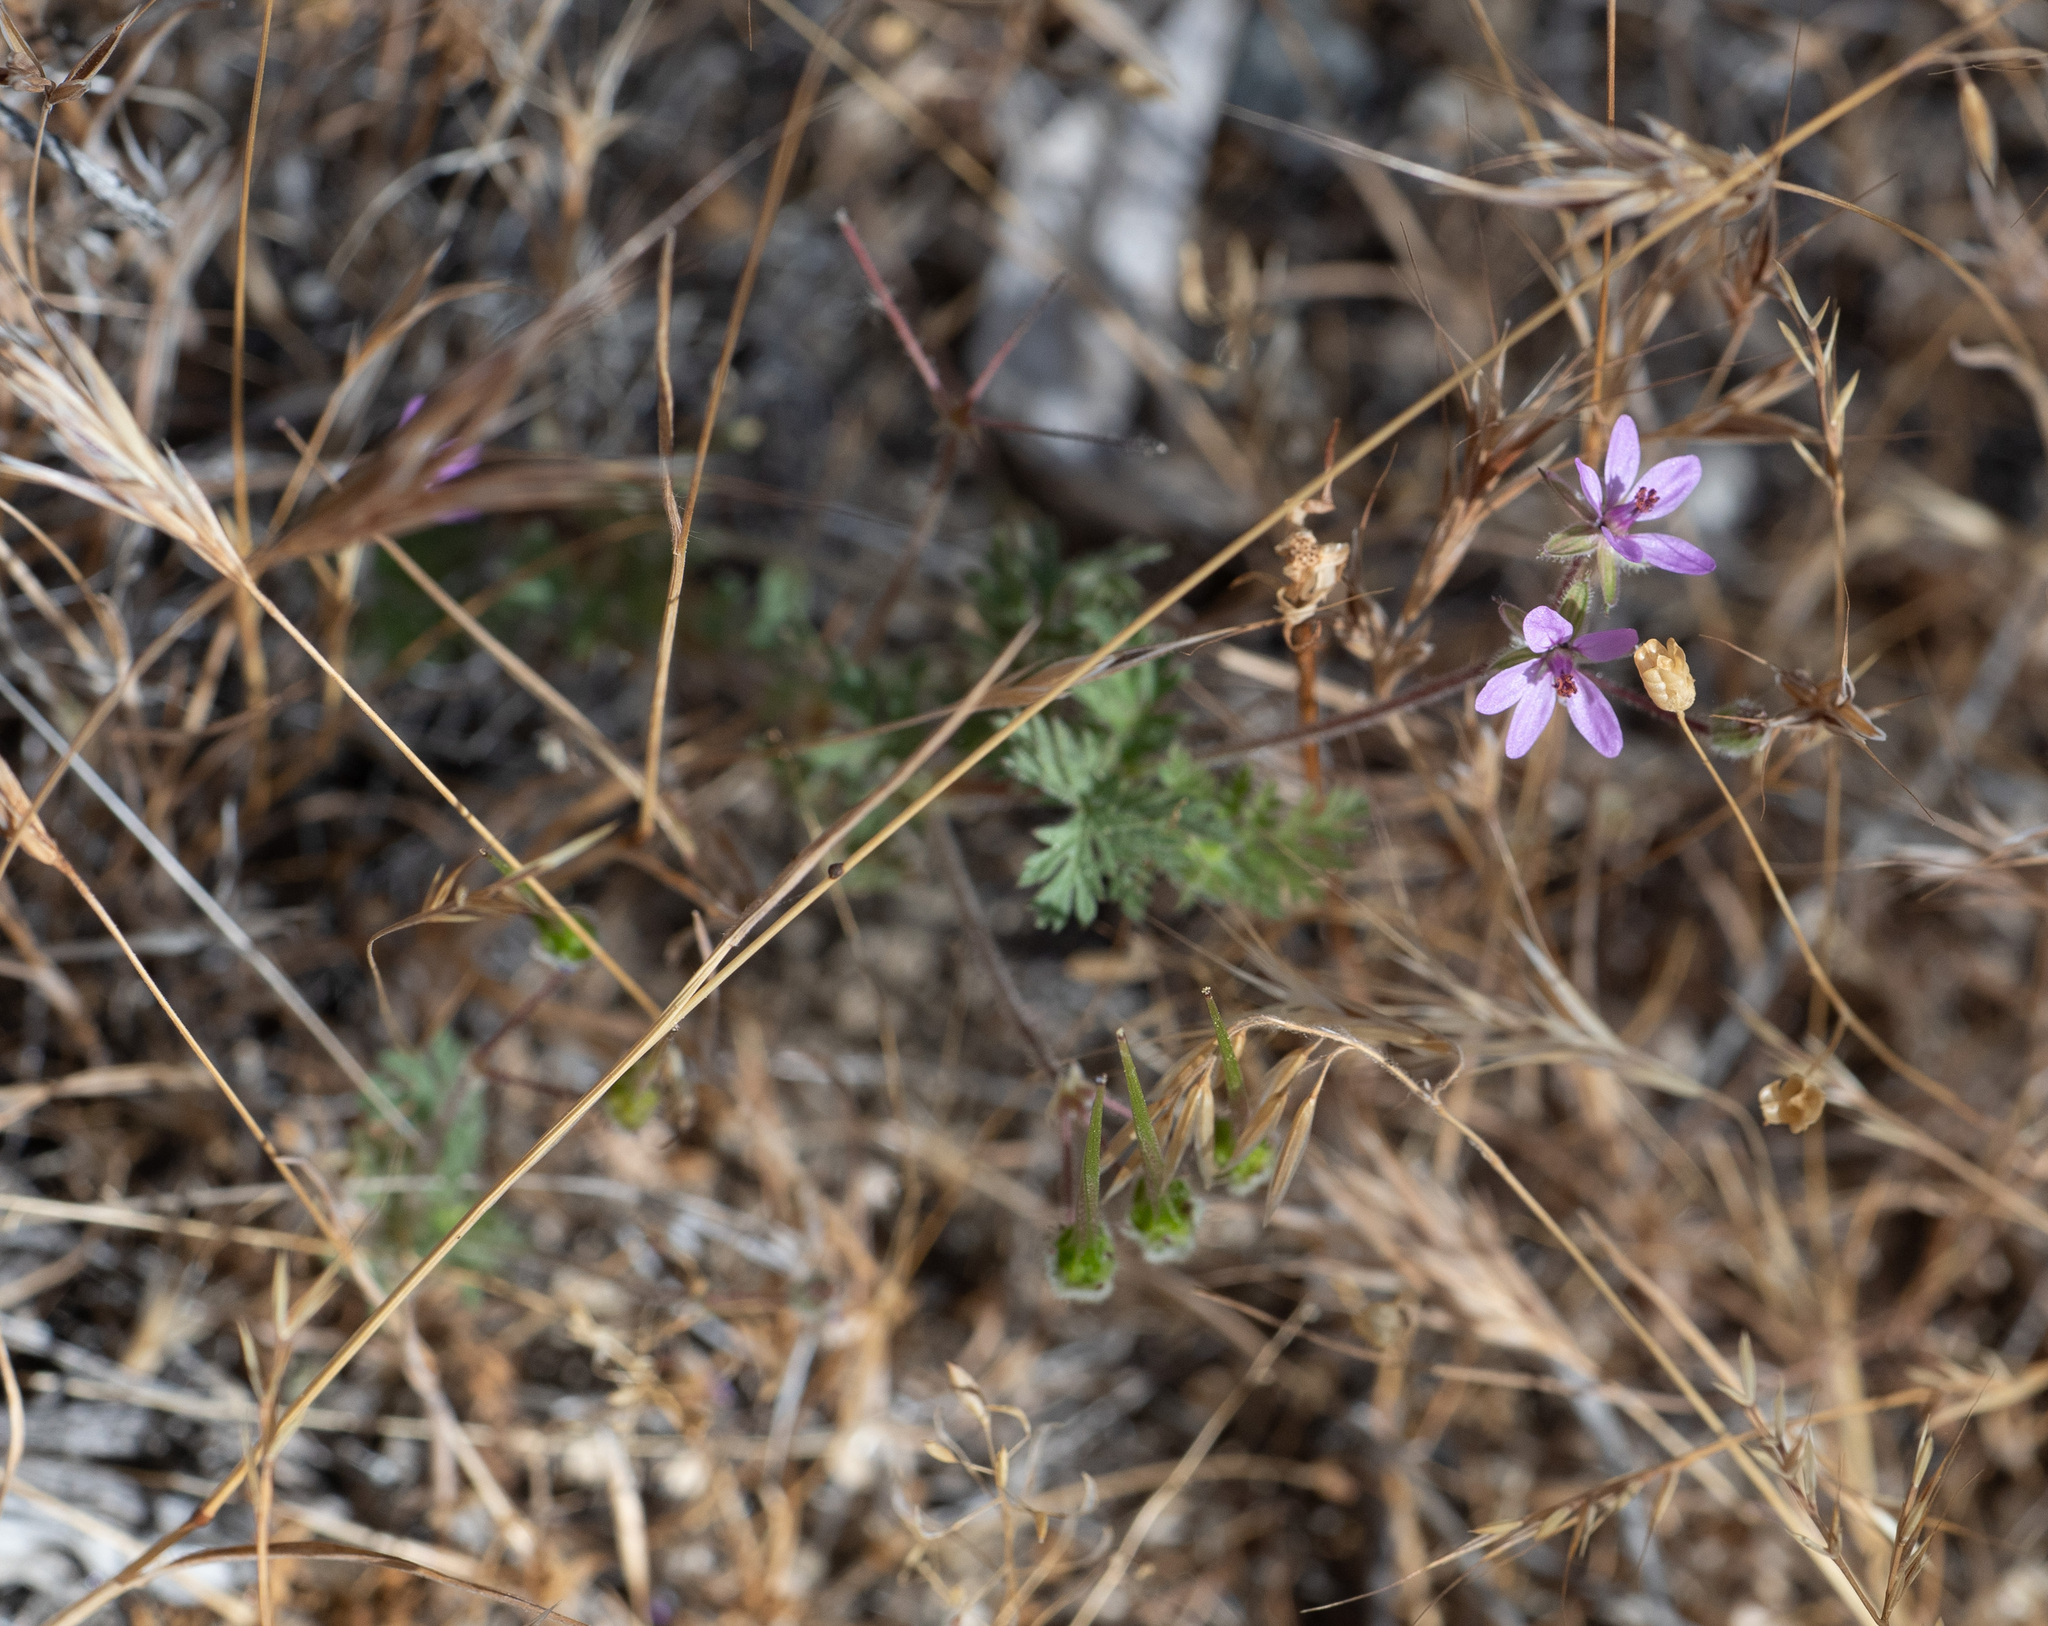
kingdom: Plantae
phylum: Tracheophyta
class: Magnoliopsida
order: Geraniales
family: Geraniaceae
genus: Erodium
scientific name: Erodium cicutarium
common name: Common stork's-bill
